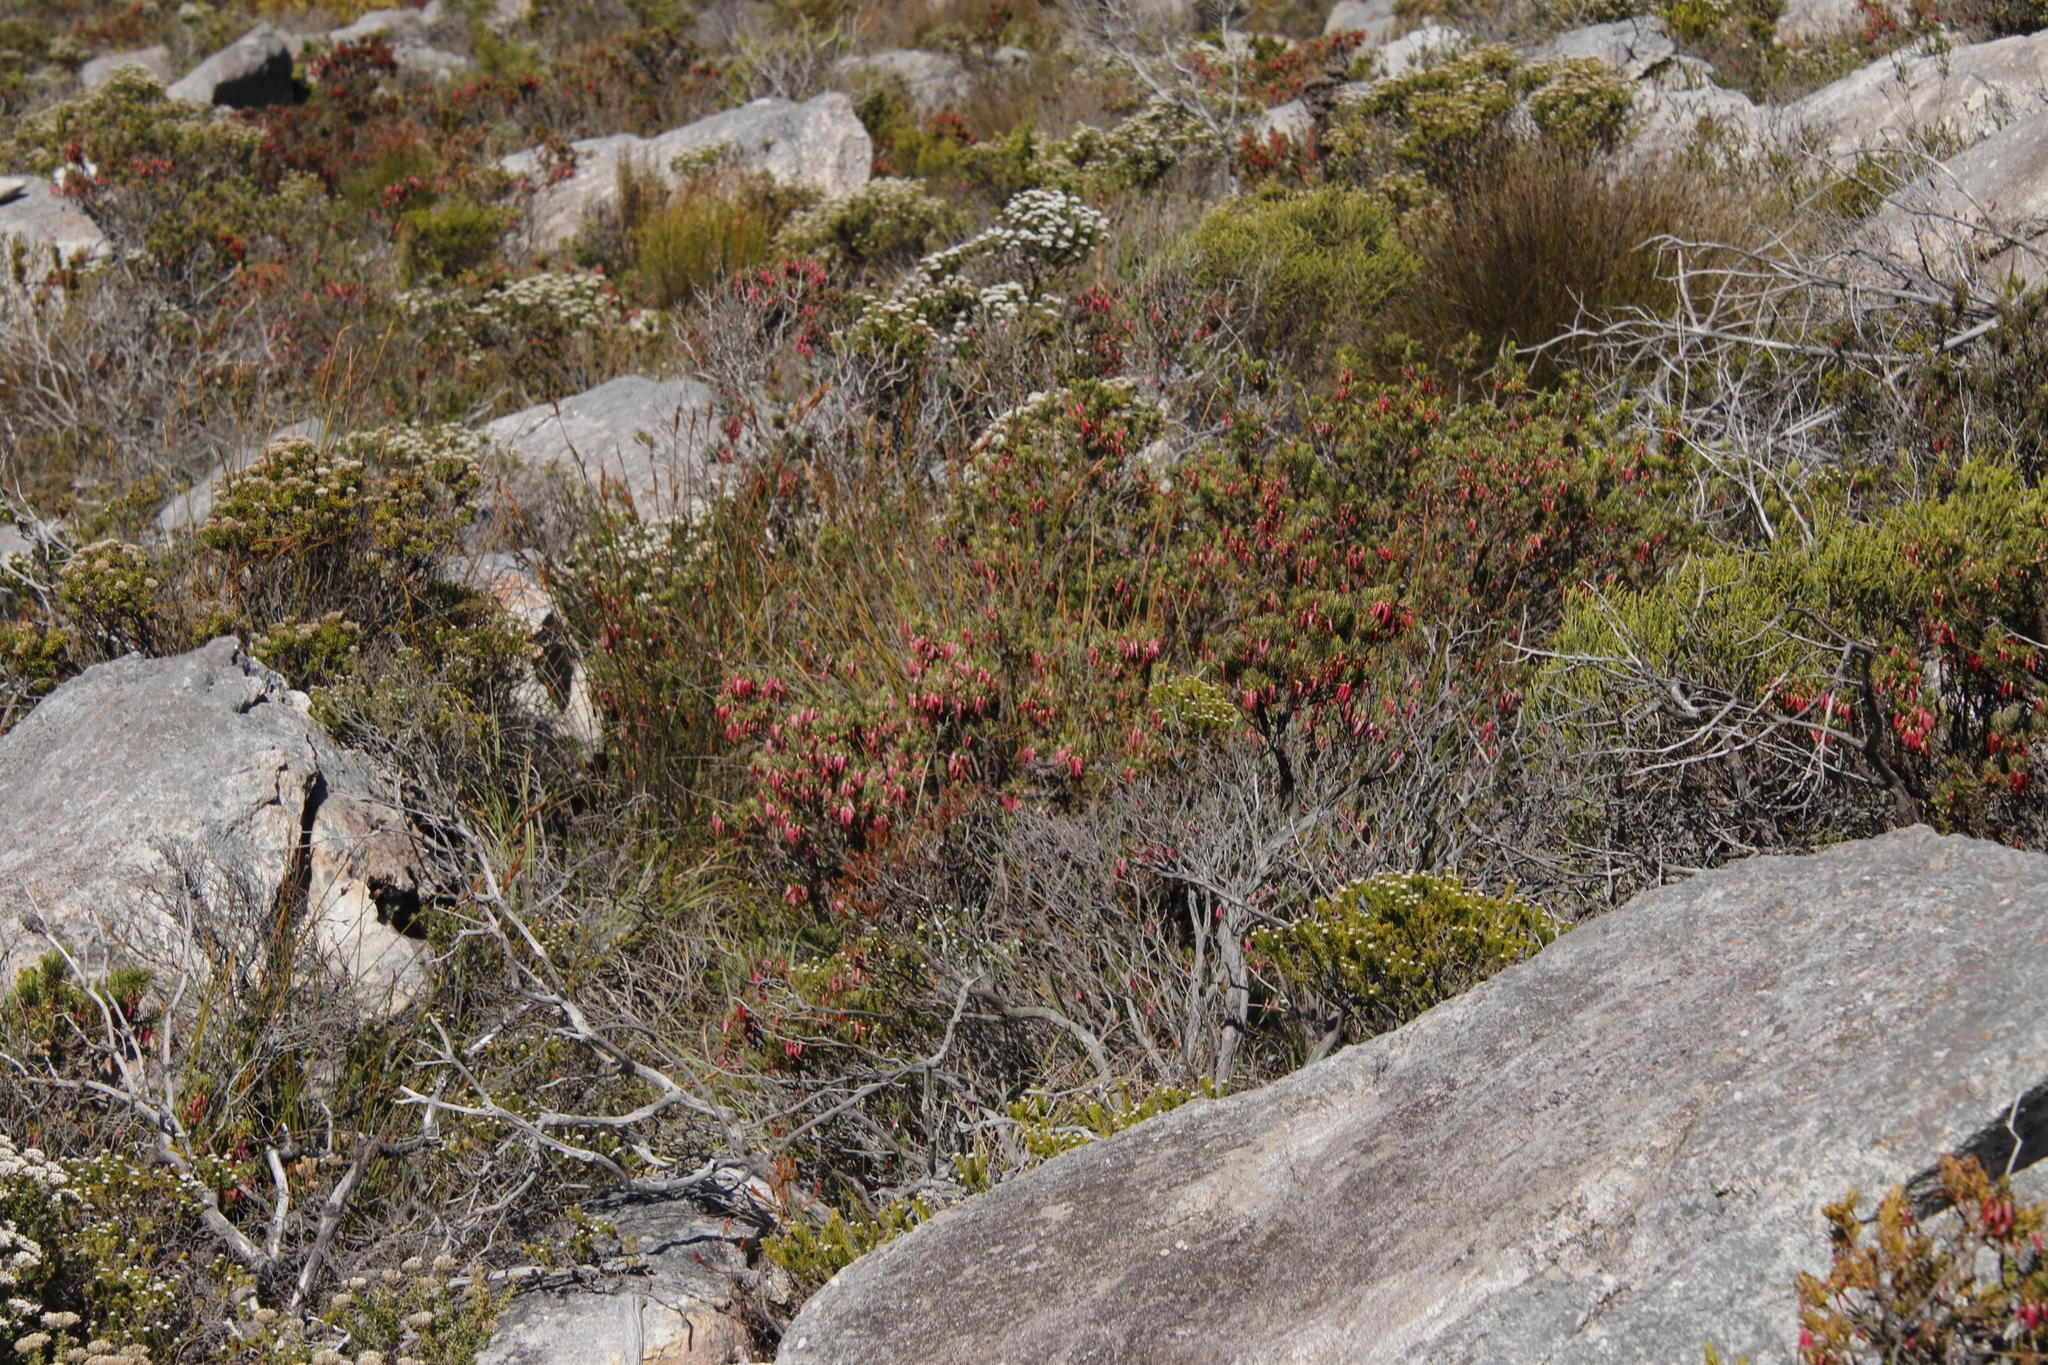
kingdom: Plantae
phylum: Tracheophyta
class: Magnoliopsida
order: Ericales
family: Ericaceae
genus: Erica
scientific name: Erica plukenetii
